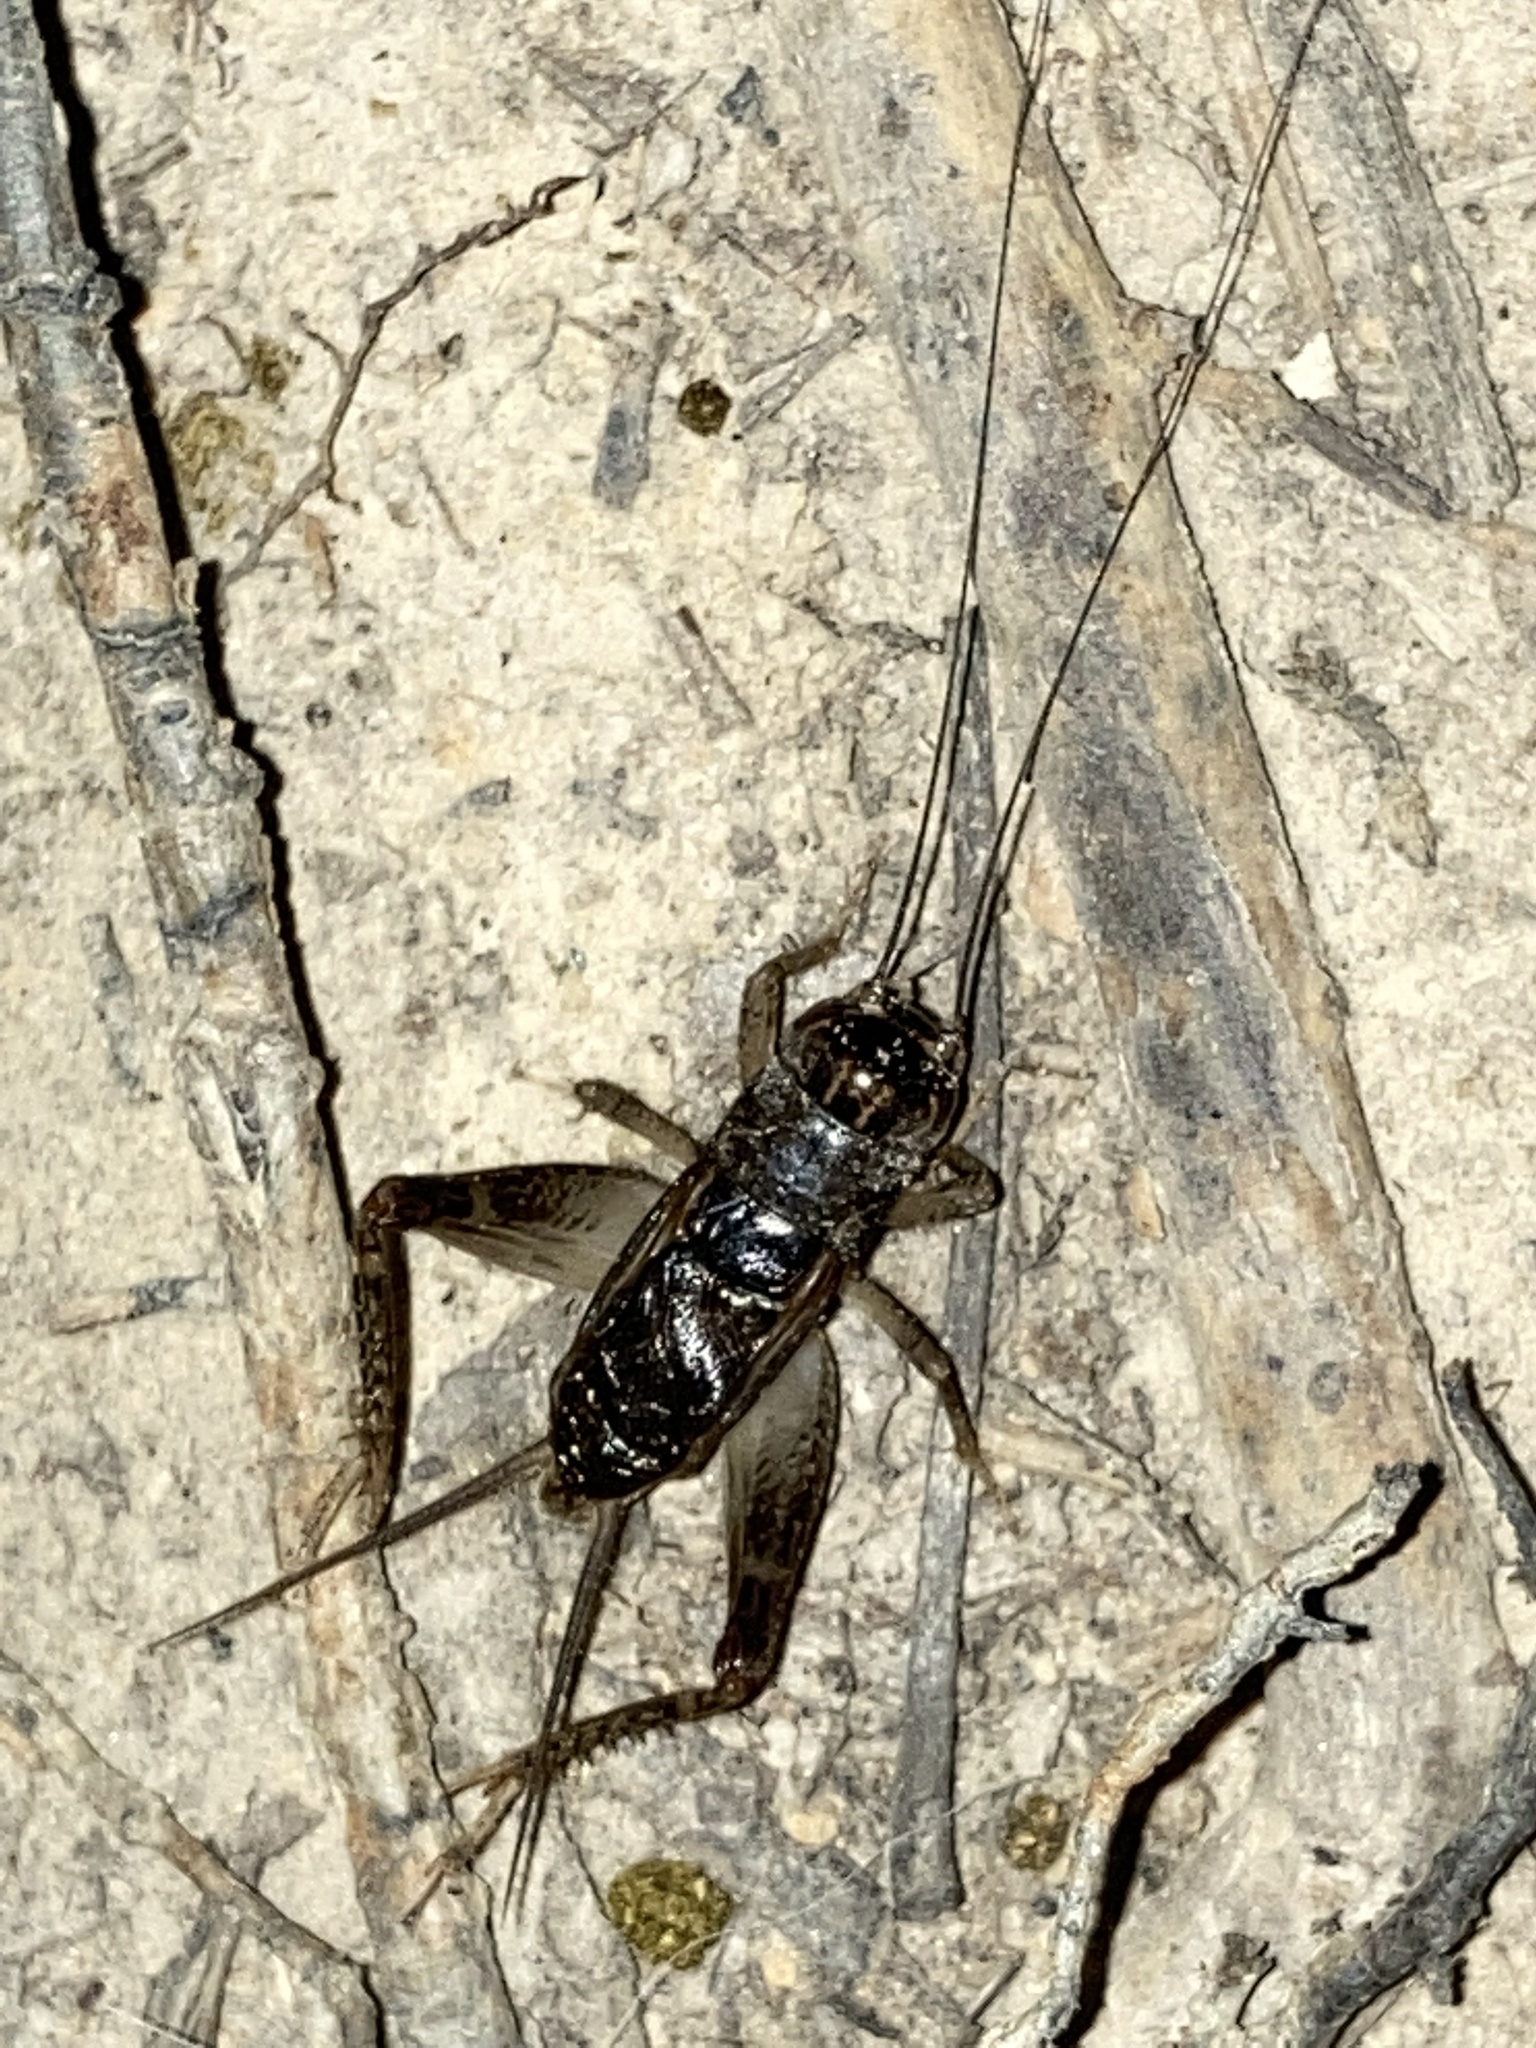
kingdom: Animalia
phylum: Arthropoda
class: Insecta
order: Orthoptera
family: Gryllidae
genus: Velarifictorus
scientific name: Velarifictorus micado
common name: Japanese burrowing cricket
